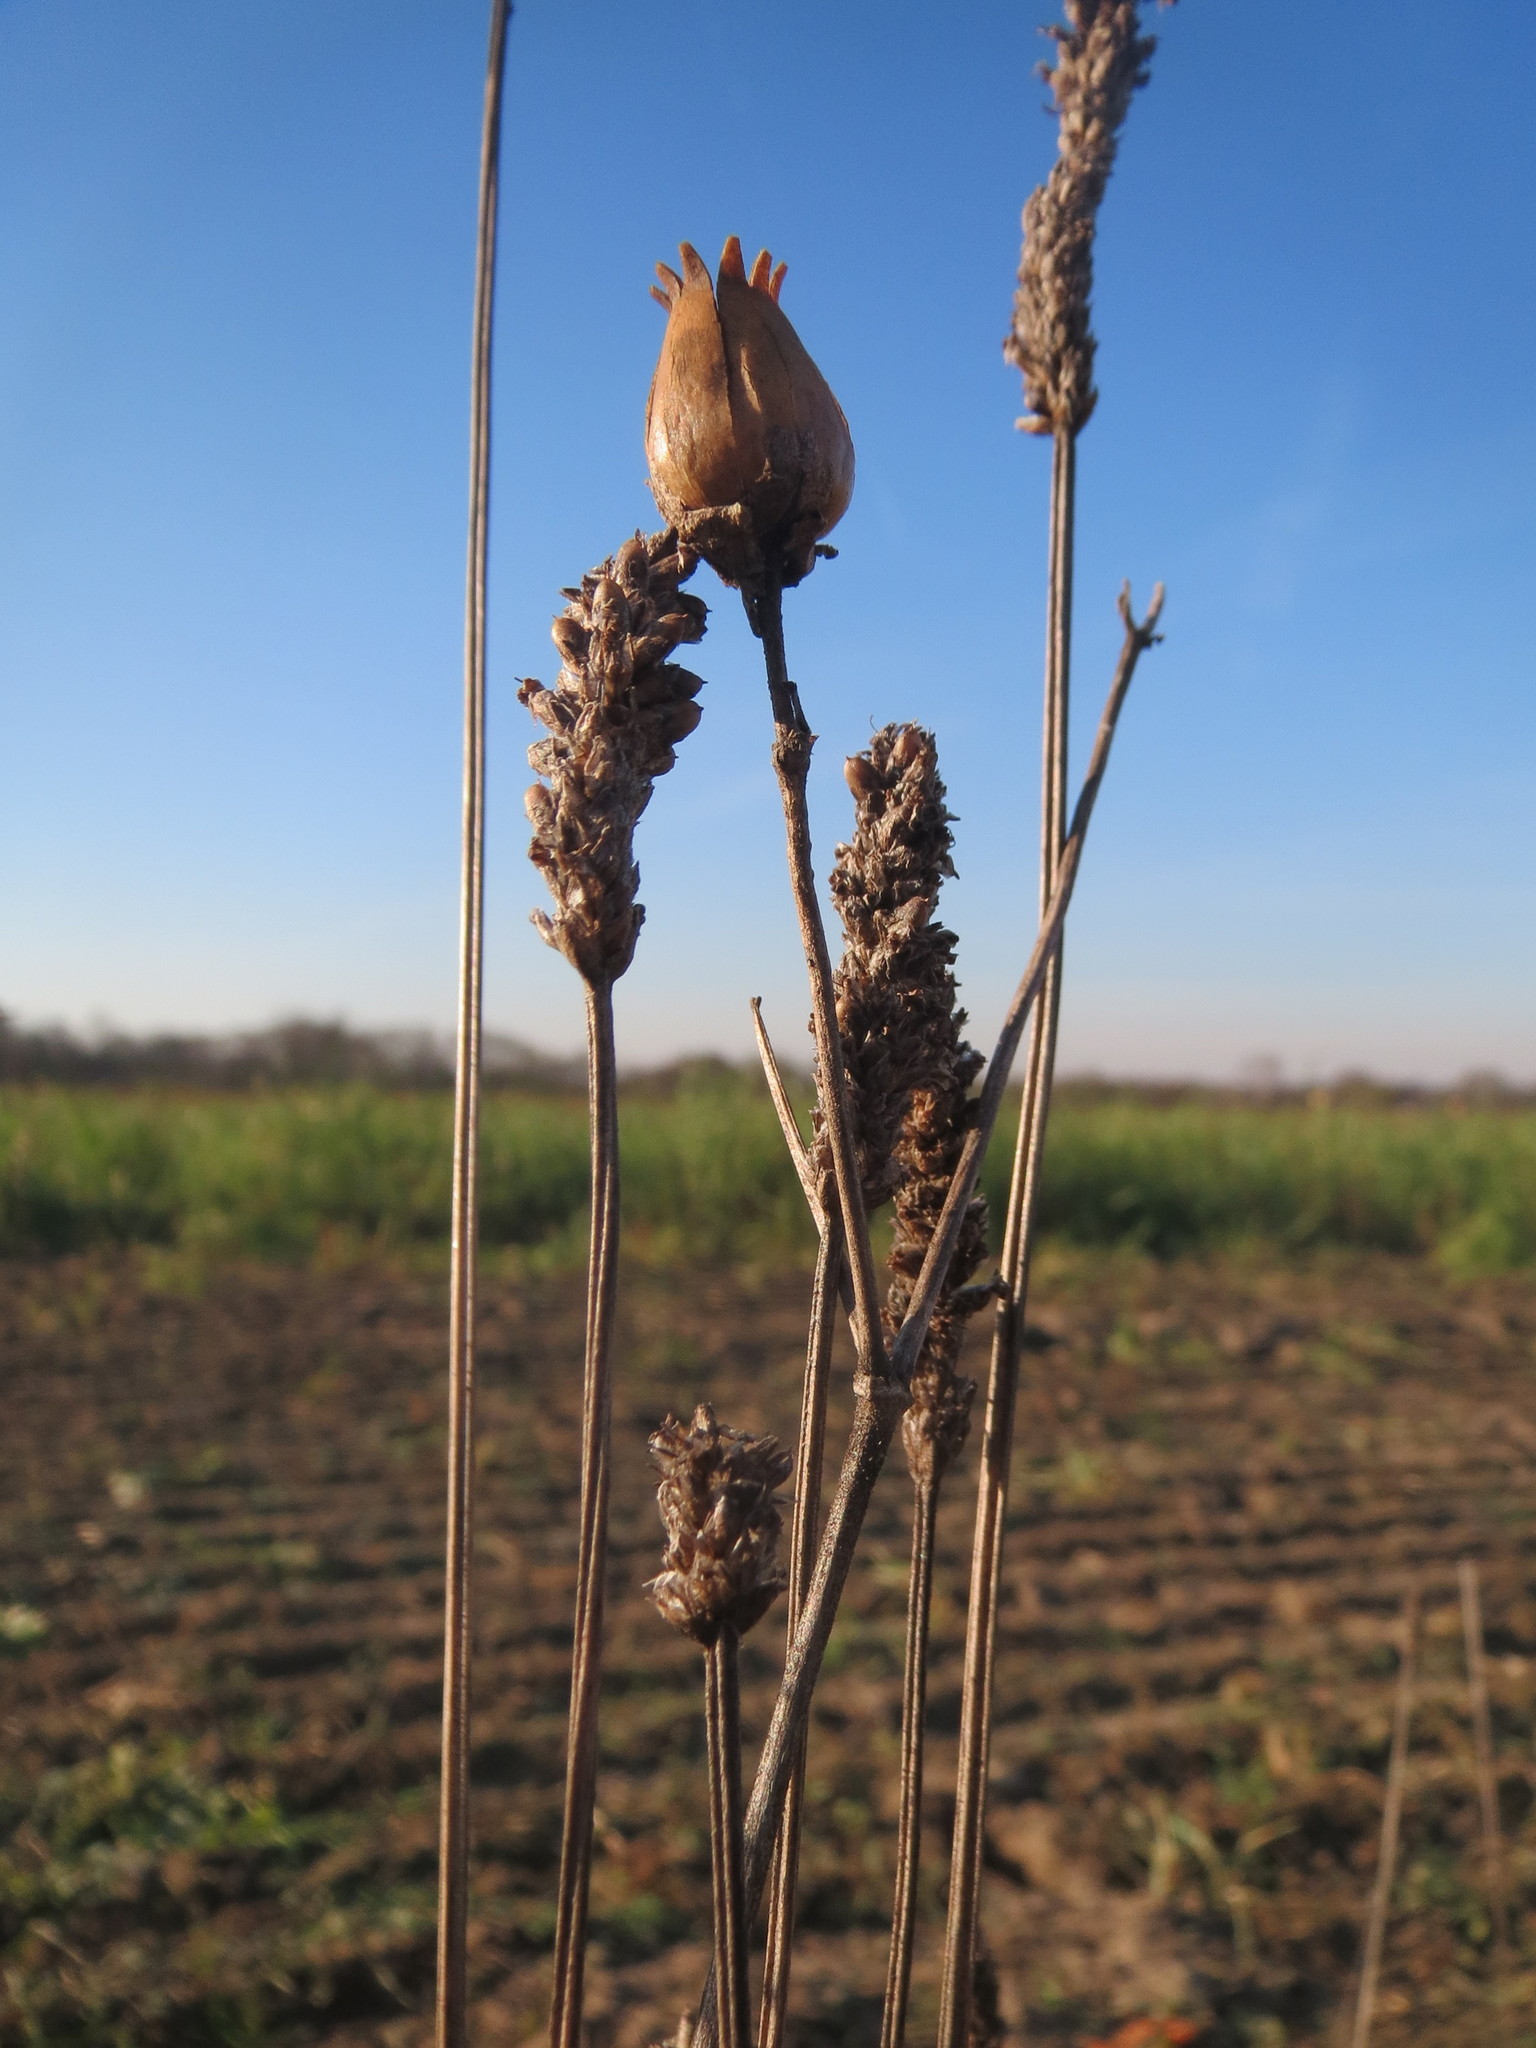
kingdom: Plantae
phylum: Tracheophyta
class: Magnoliopsida
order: Caryophyllales
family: Caryophyllaceae
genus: Silene
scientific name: Silene latifolia
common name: White campion
